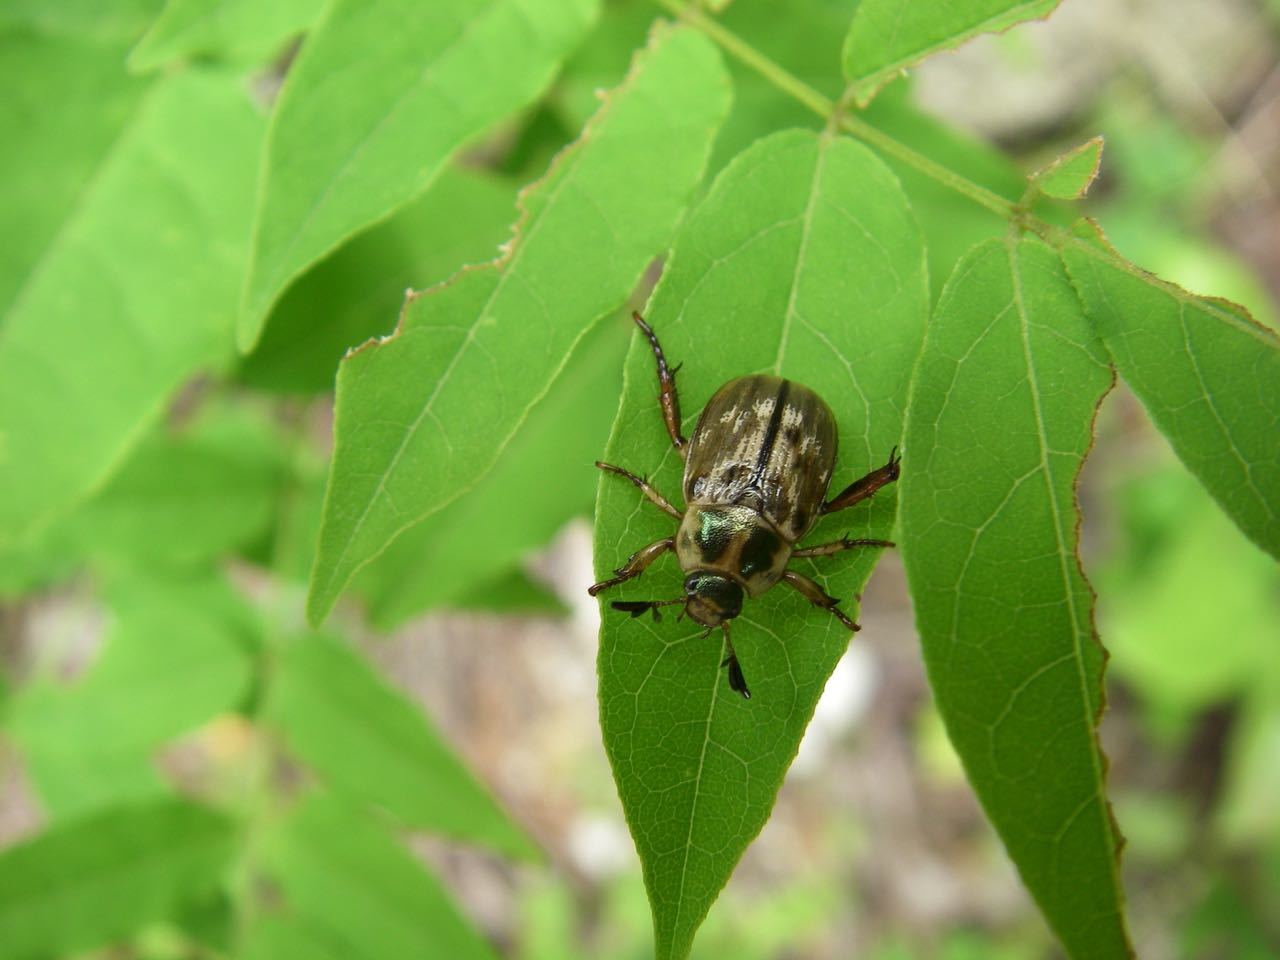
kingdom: Animalia
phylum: Arthropoda
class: Insecta
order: Coleoptera
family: Scarabaeidae
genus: Exomala
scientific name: Exomala orientalis
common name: Oriental beetle
